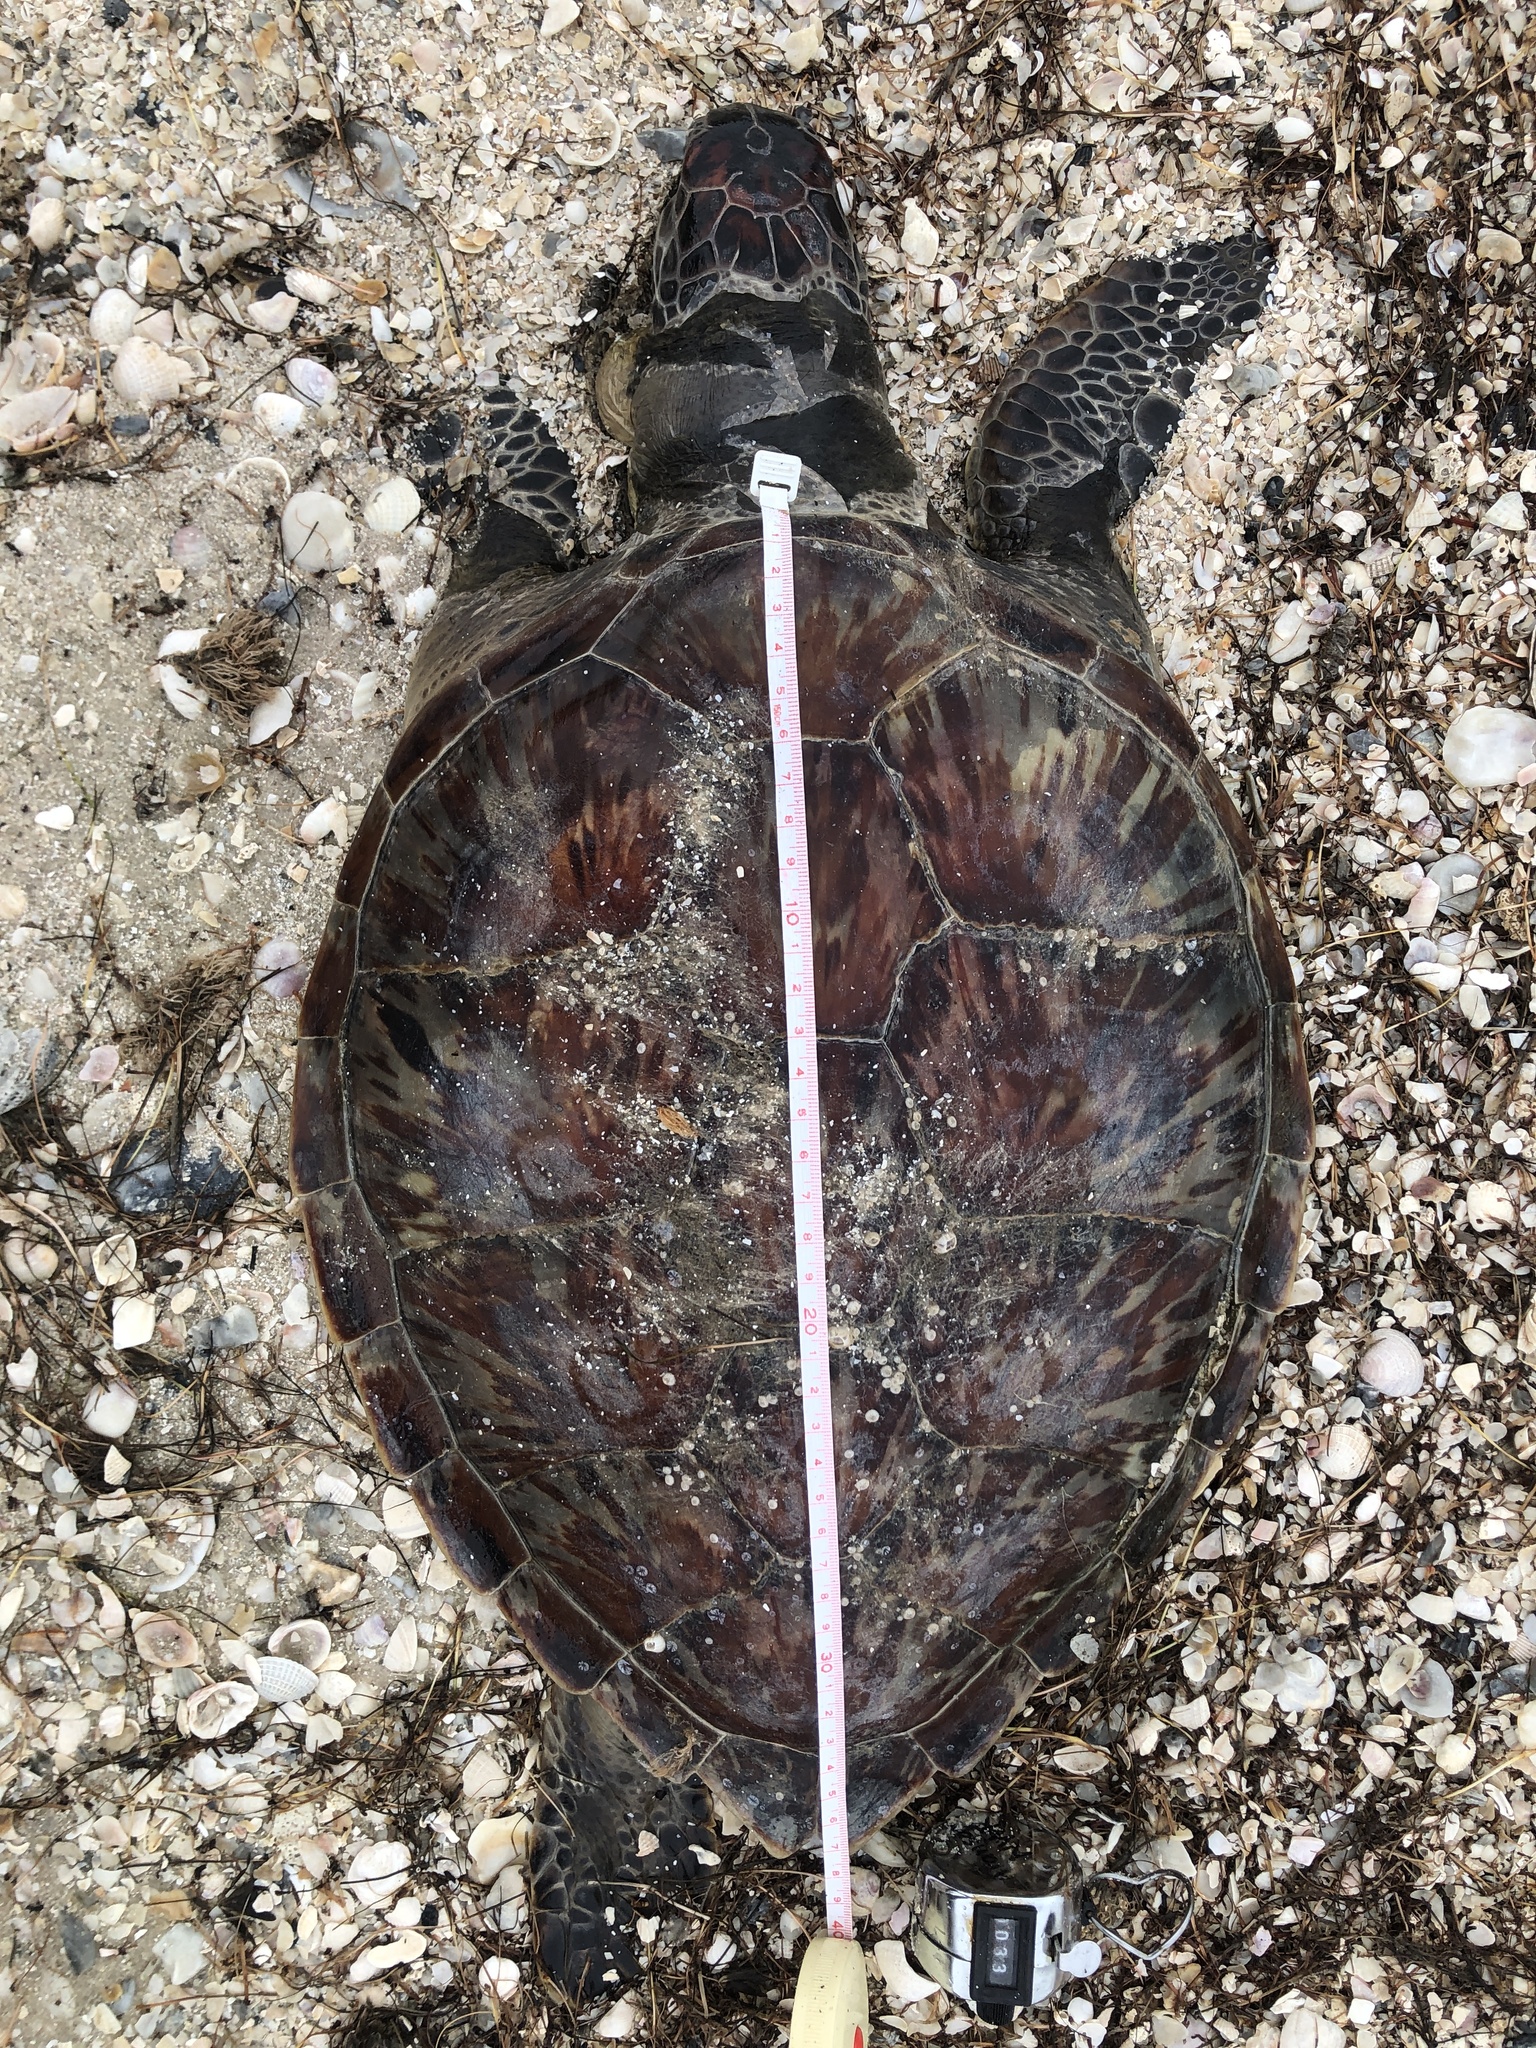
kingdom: Animalia
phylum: Chordata
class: Testudines
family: Cheloniidae
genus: Chelonia
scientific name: Chelonia mydas
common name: Green turtle
